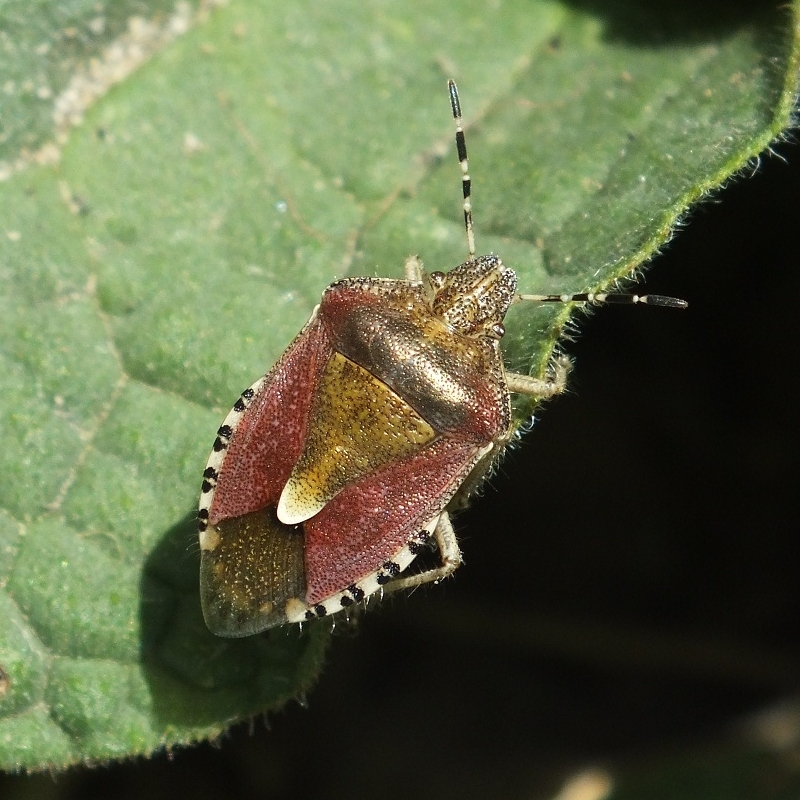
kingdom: Animalia
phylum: Arthropoda
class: Insecta
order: Hemiptera
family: Pentatomidae
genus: Dolycoris
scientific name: Dolycoris baccarum
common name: Sloe bug
